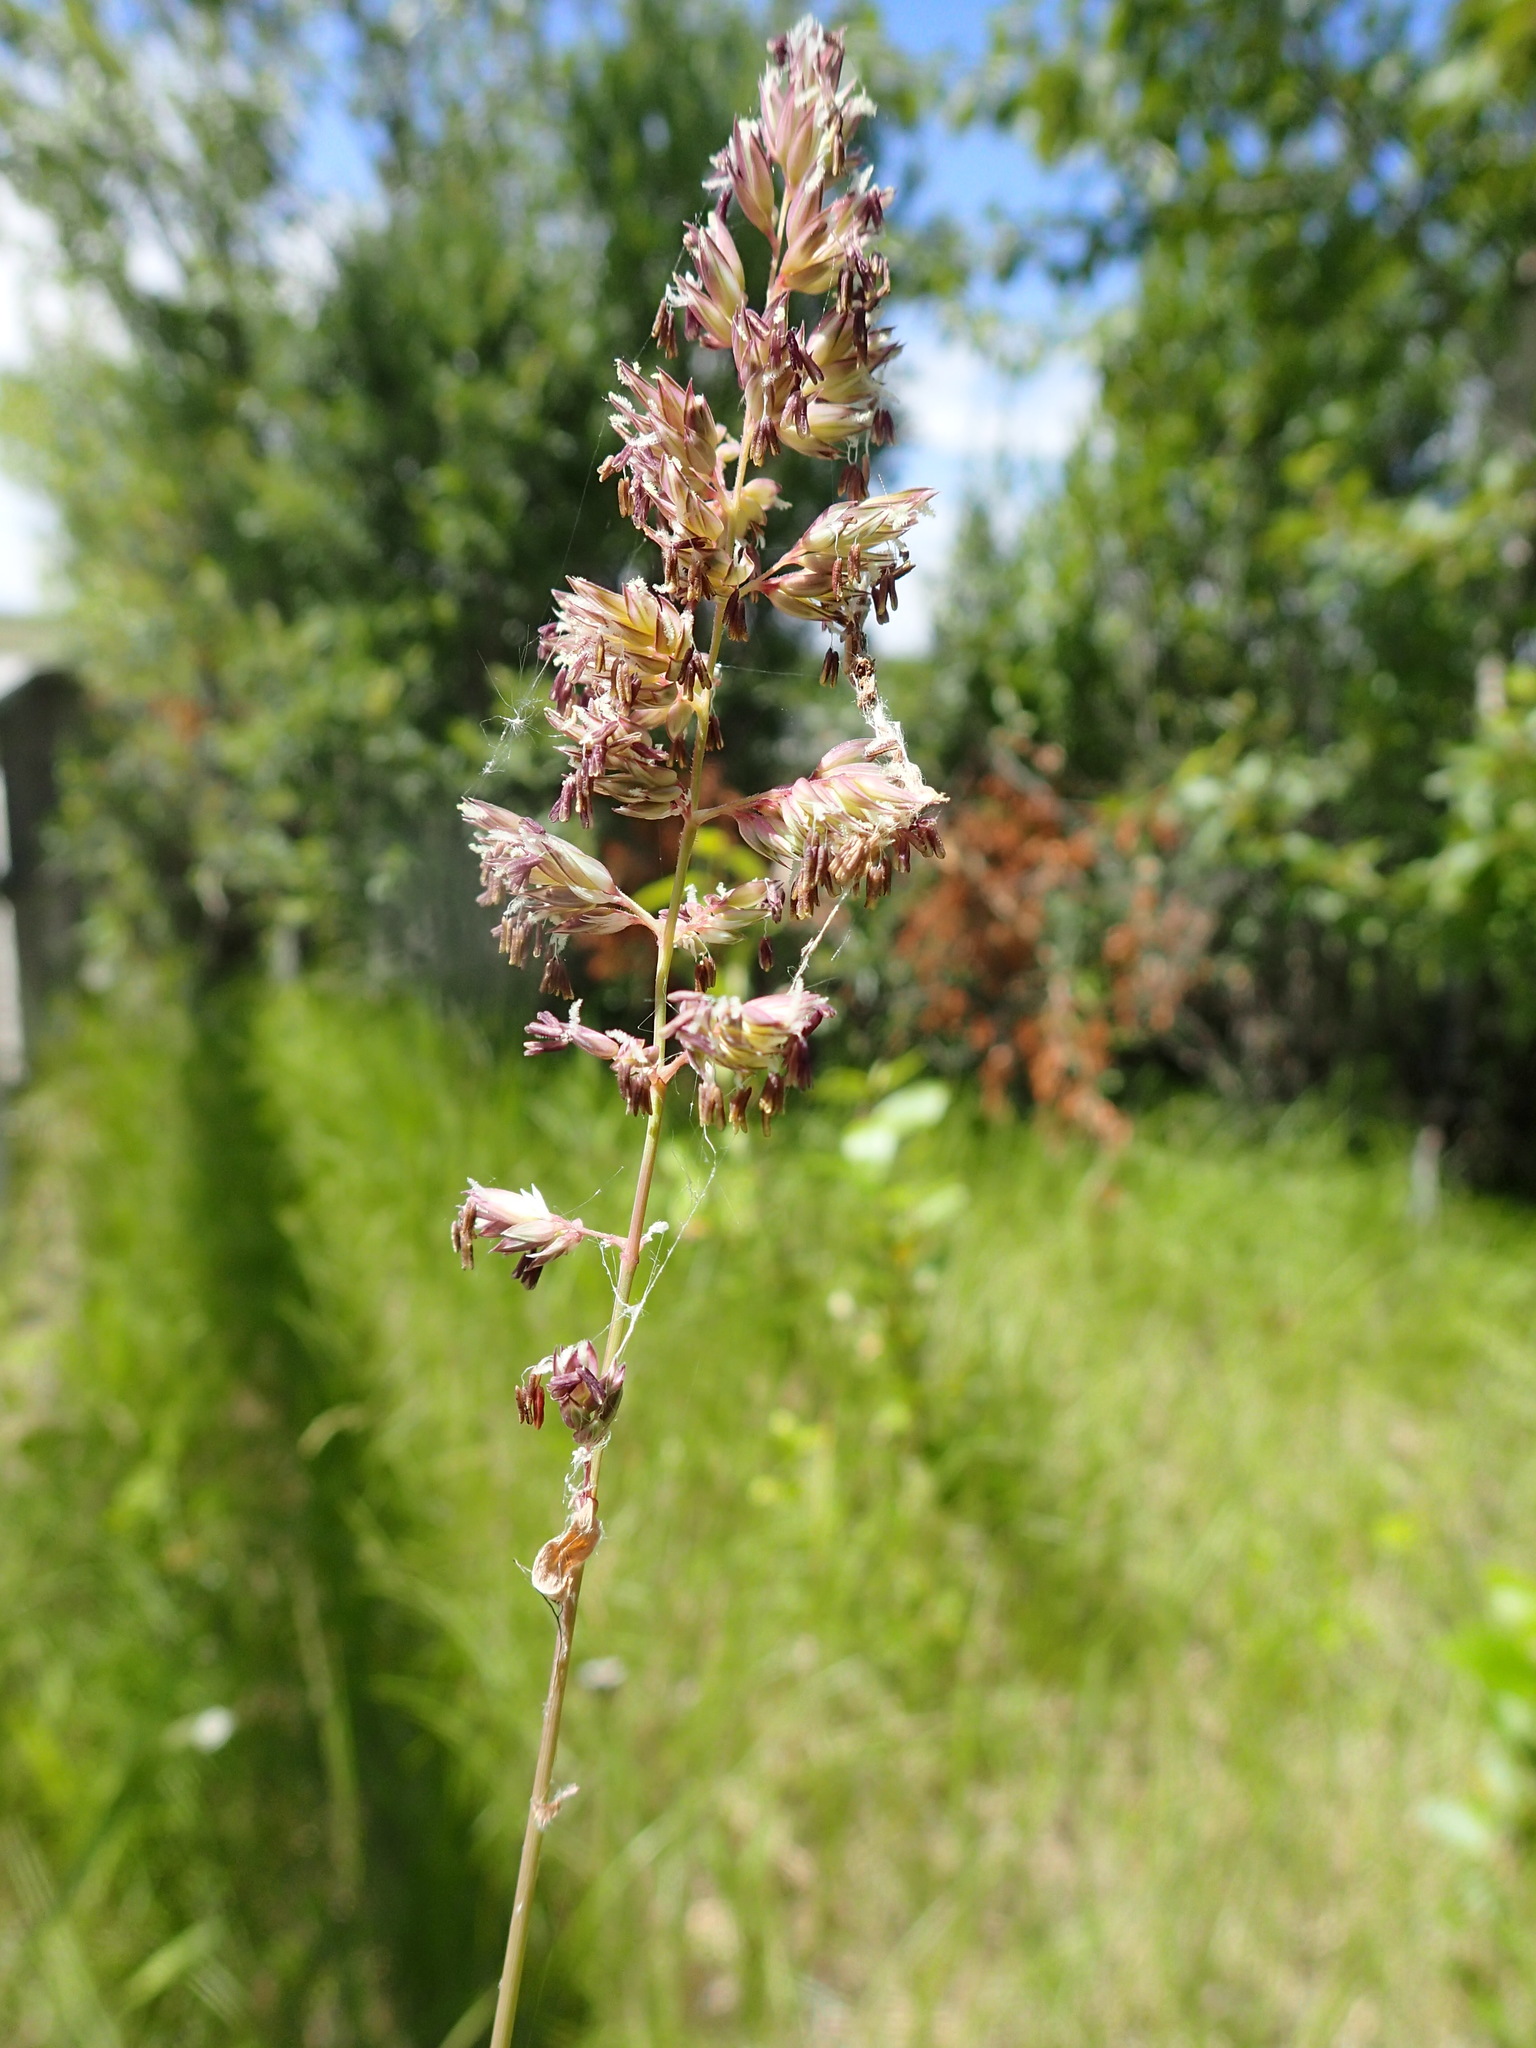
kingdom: Plantae
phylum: Tracheophyta
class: Liliopsida
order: Poales
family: Poaceae
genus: Phalaris
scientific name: Phalaris arundinacea
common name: Reed canary-grass
